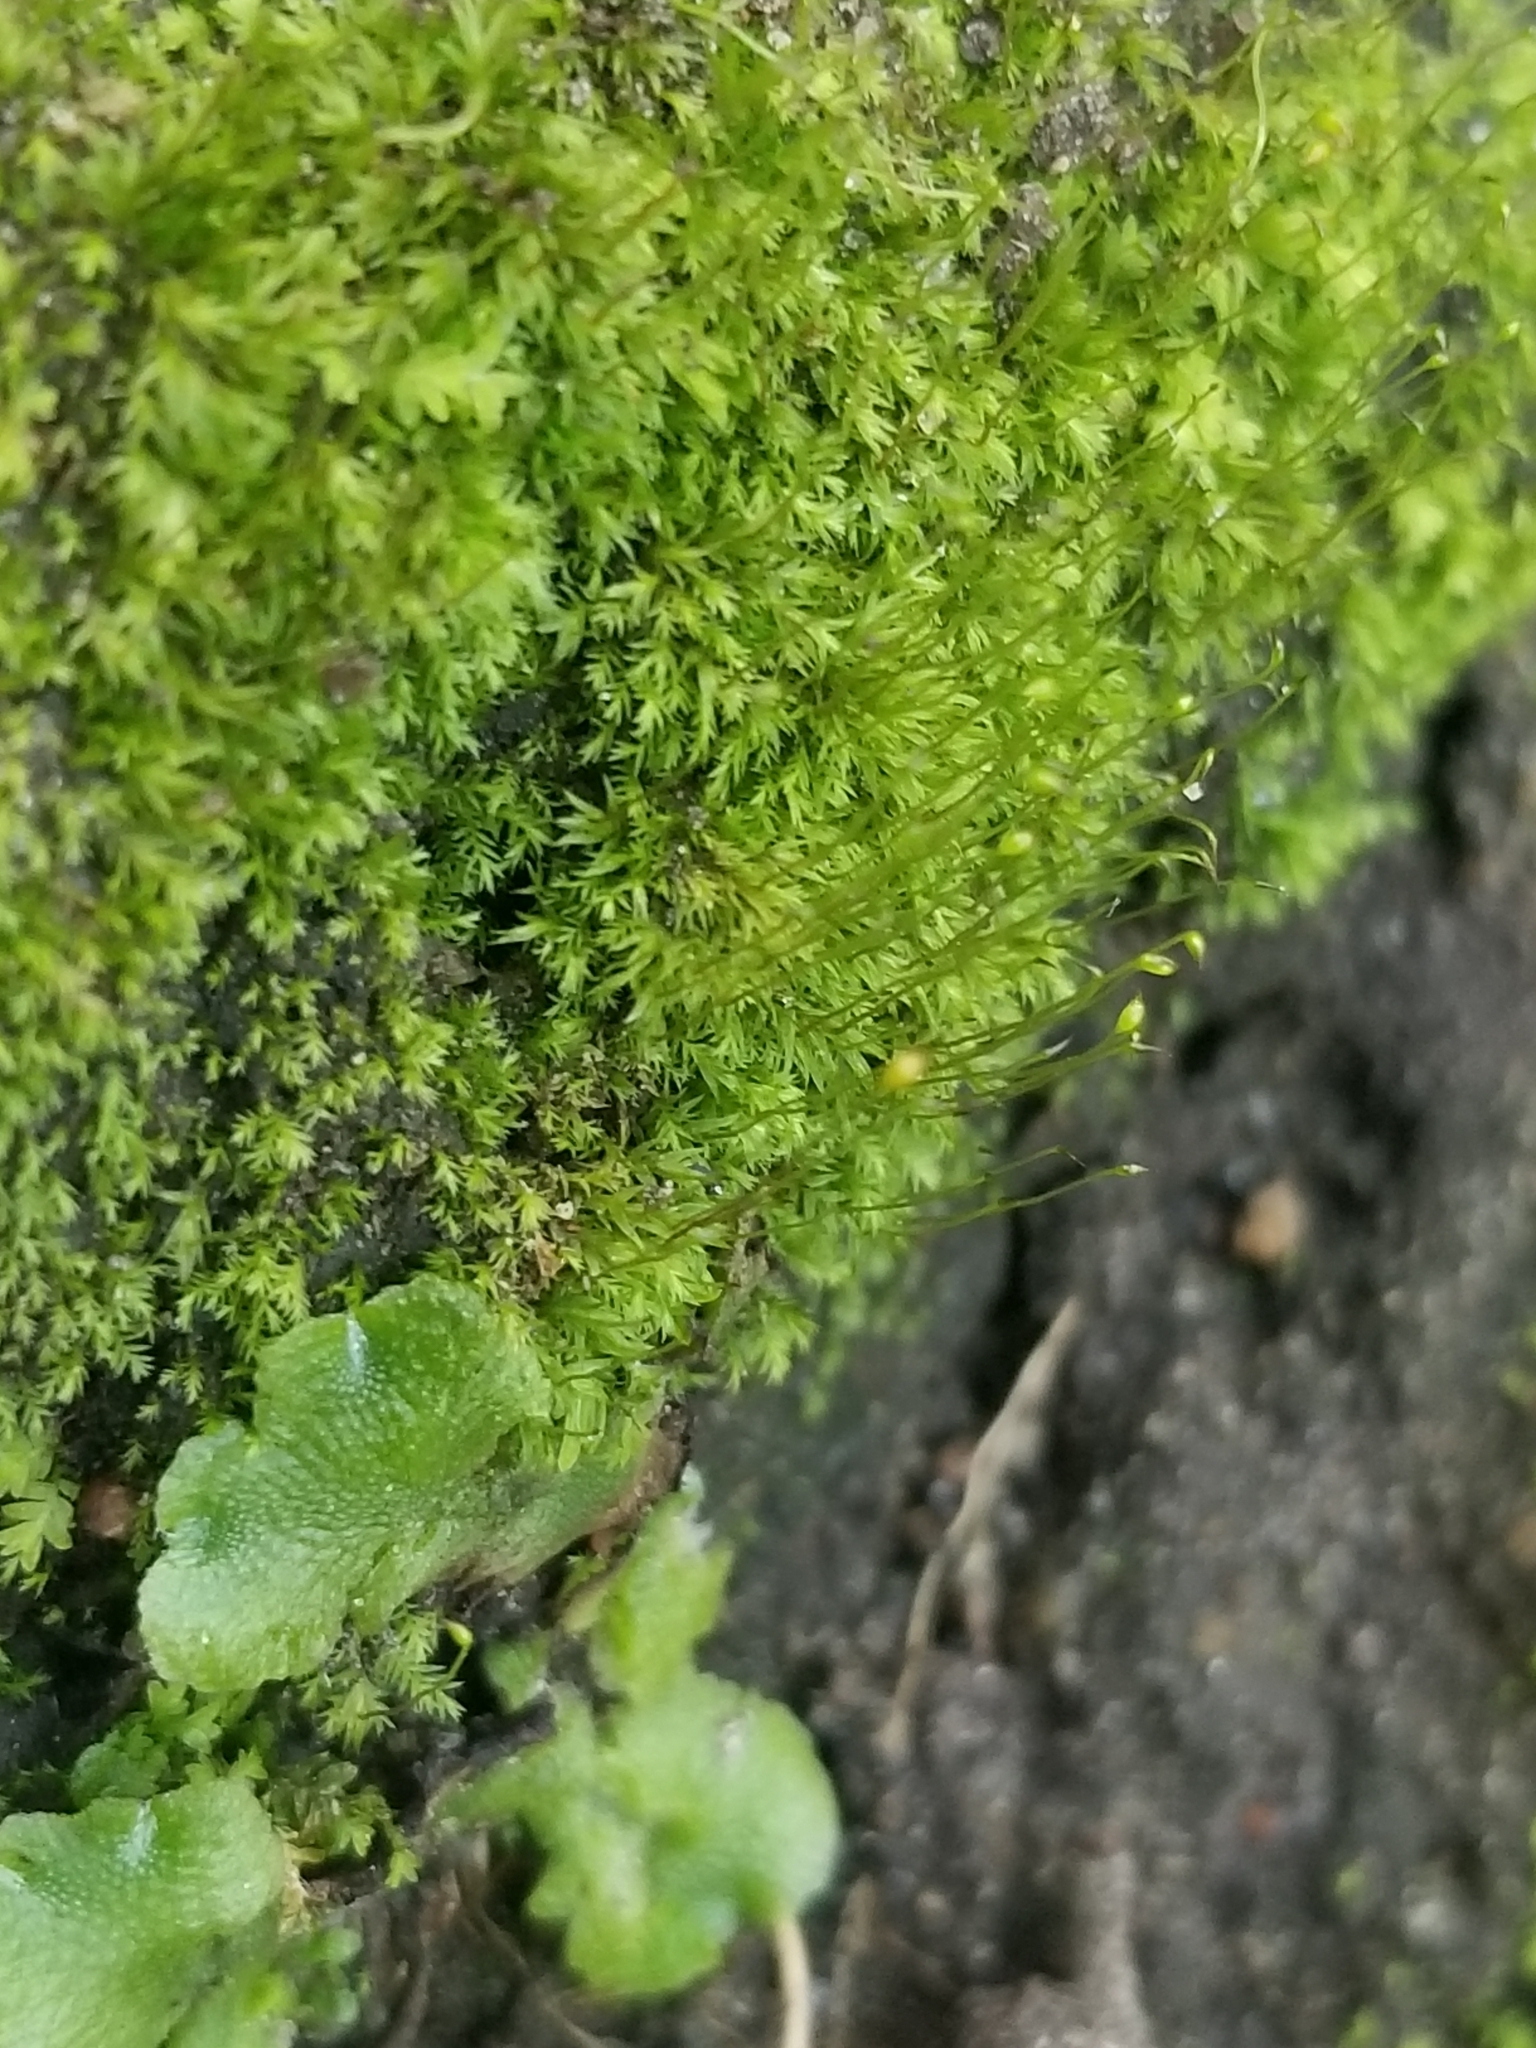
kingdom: Plantae
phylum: Bryophyta
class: Bryopsida
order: Dicranales
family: Fissidentaceae
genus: Fissidens
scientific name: Fissidens bryoides
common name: Lesser pocket moss
